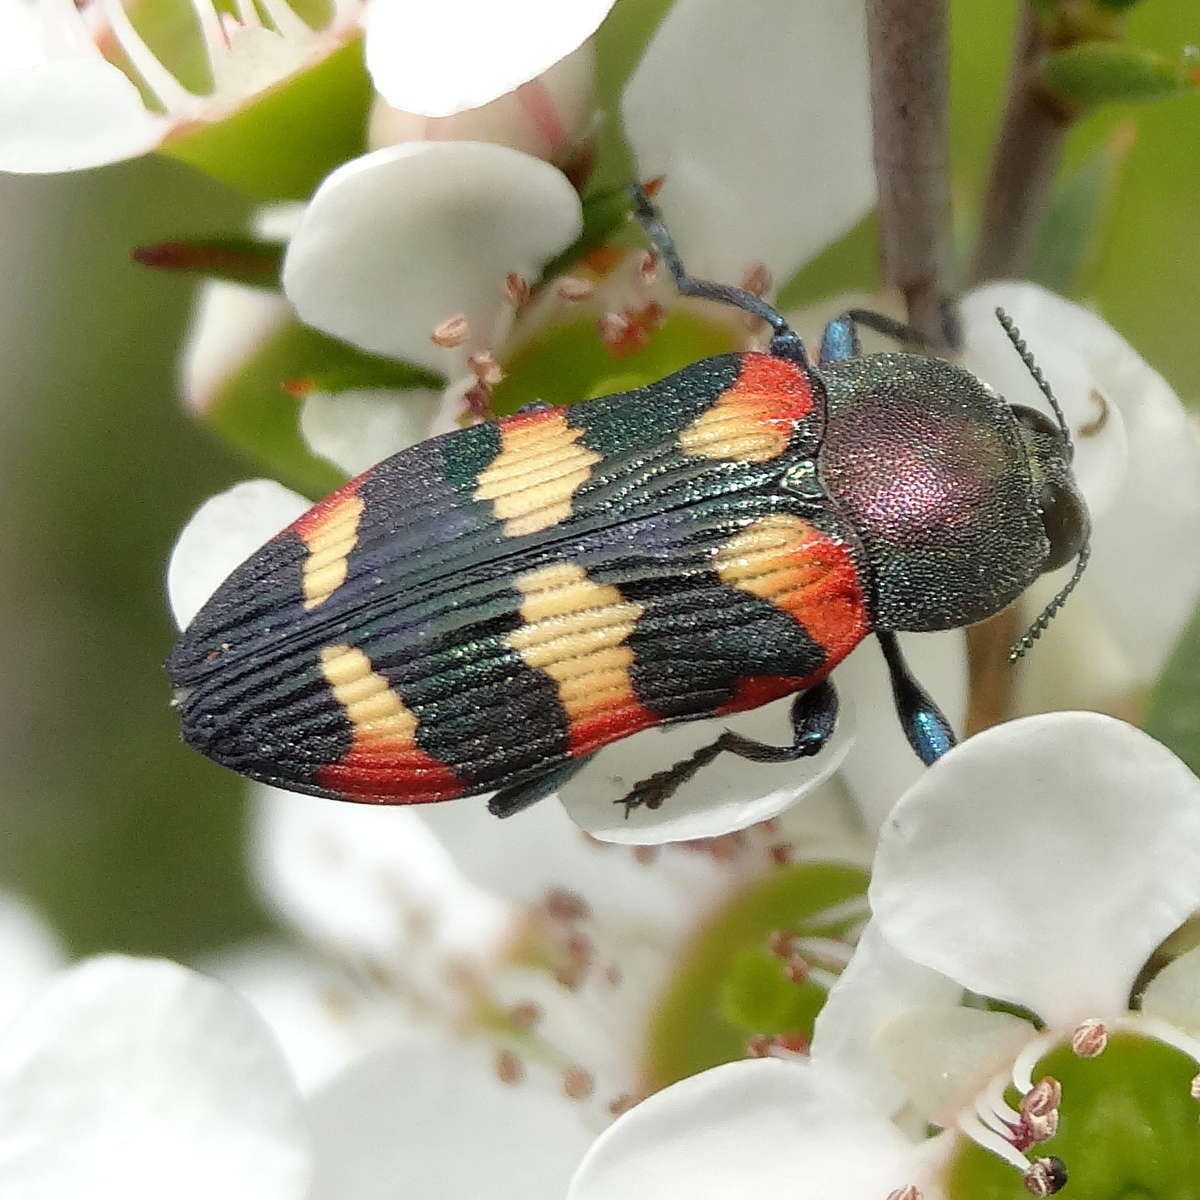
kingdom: Animalia
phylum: Arthropoda
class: Insecta
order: Coleoptera
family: Buprestidae
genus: Castiarina
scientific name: Castiarina sexplagiata
